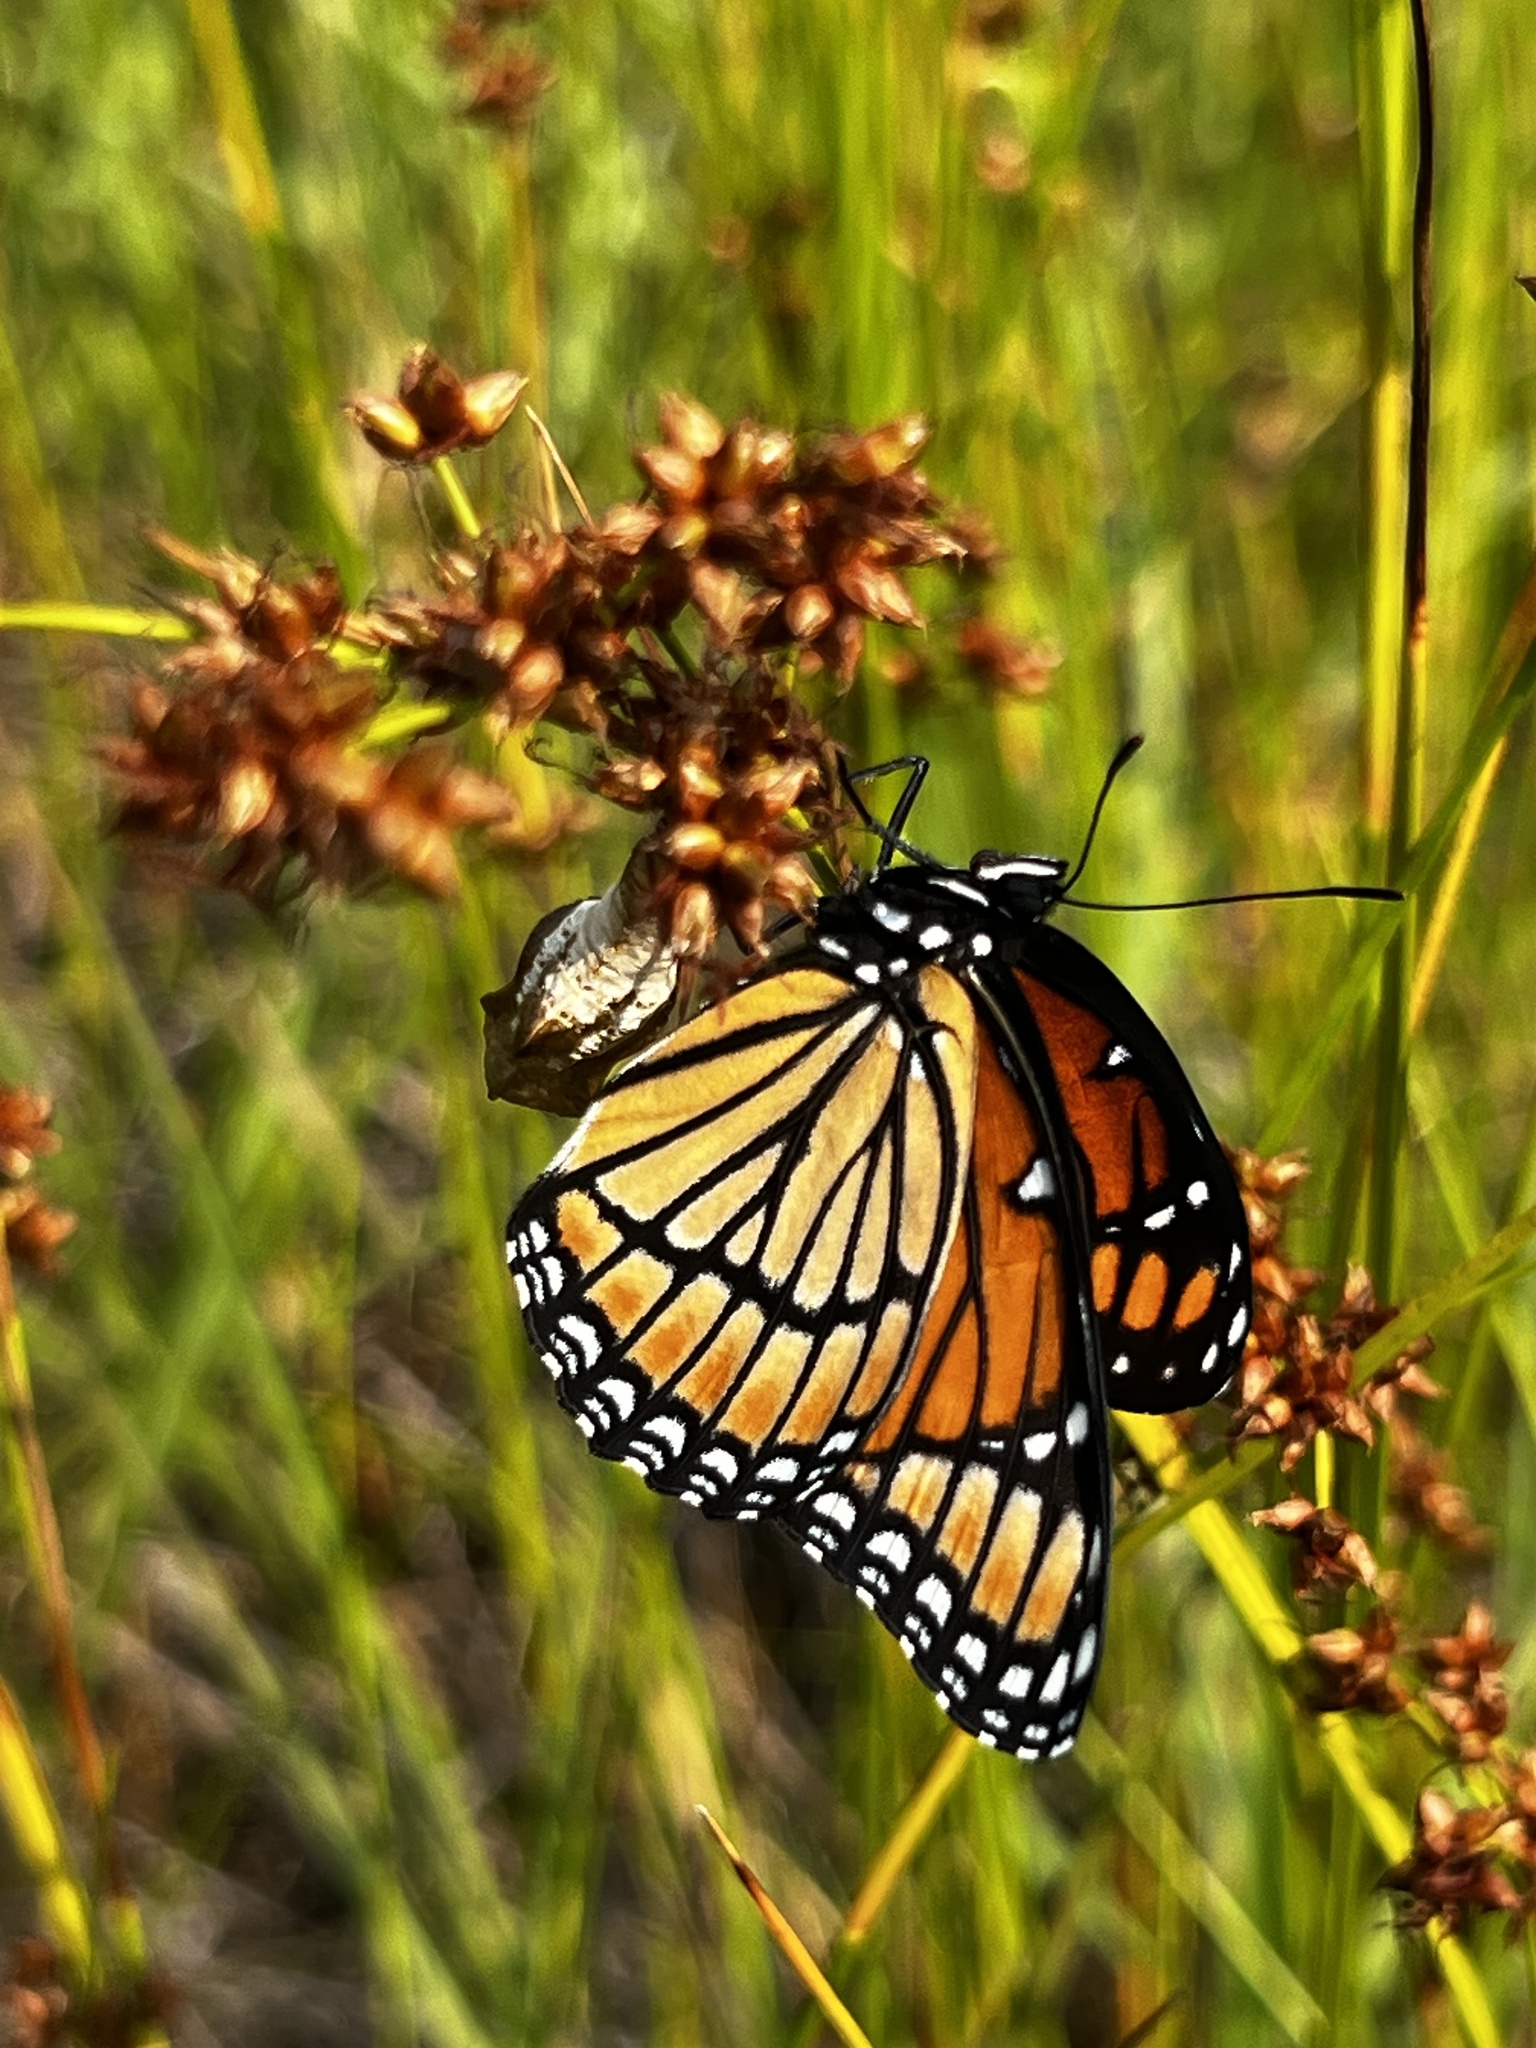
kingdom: Animalia
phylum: Arthropoda
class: Insecta
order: Lepidoptera
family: Nymphalidae
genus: Limenitis
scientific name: Limenitis archippus
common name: Viceroy
